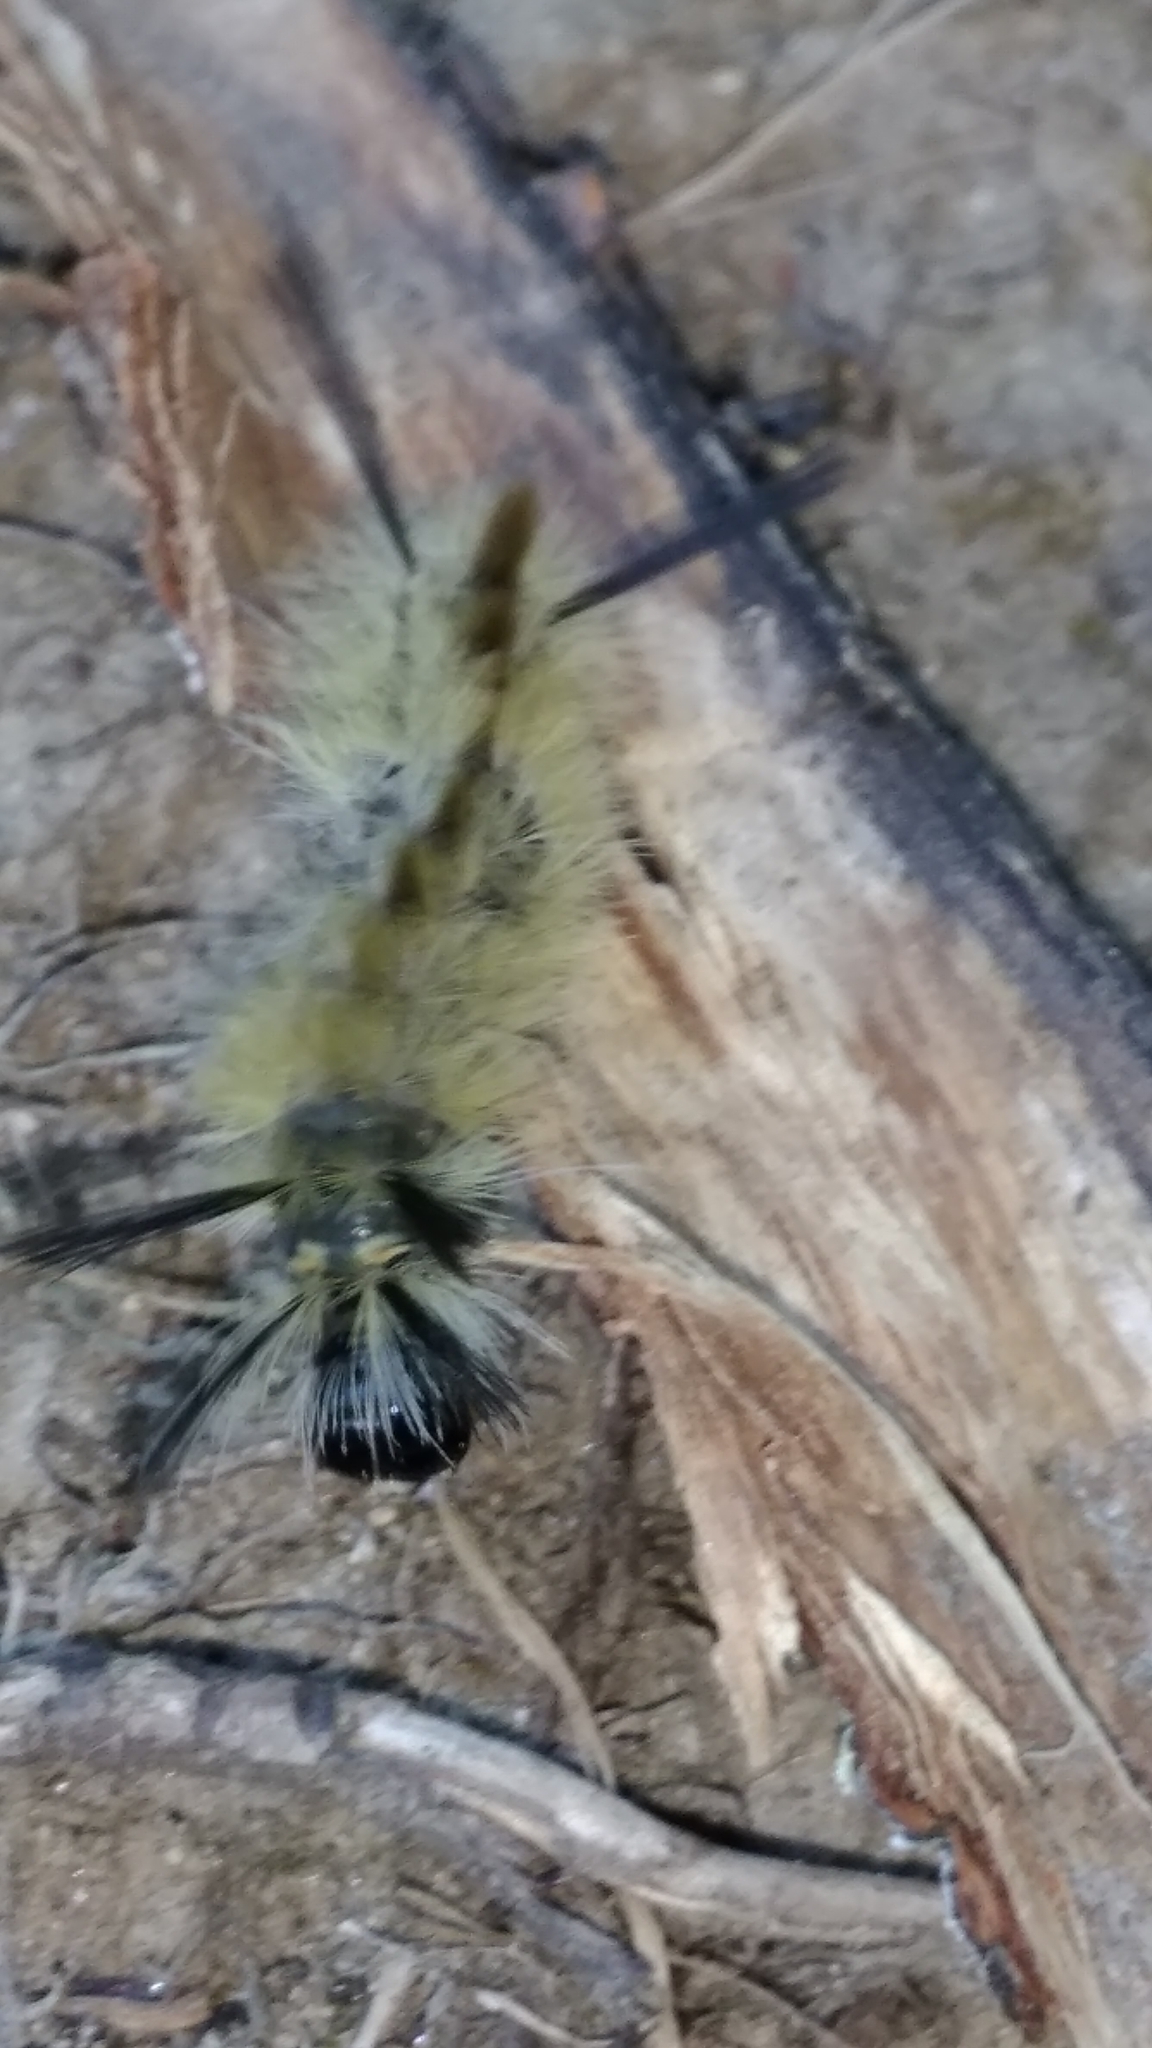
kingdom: Animalia
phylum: Arthropoda
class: Insecta
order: Lepidoptera
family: Erebidae
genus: Halysidota
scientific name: Halysidota tessellaris
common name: Banded tussock moth
